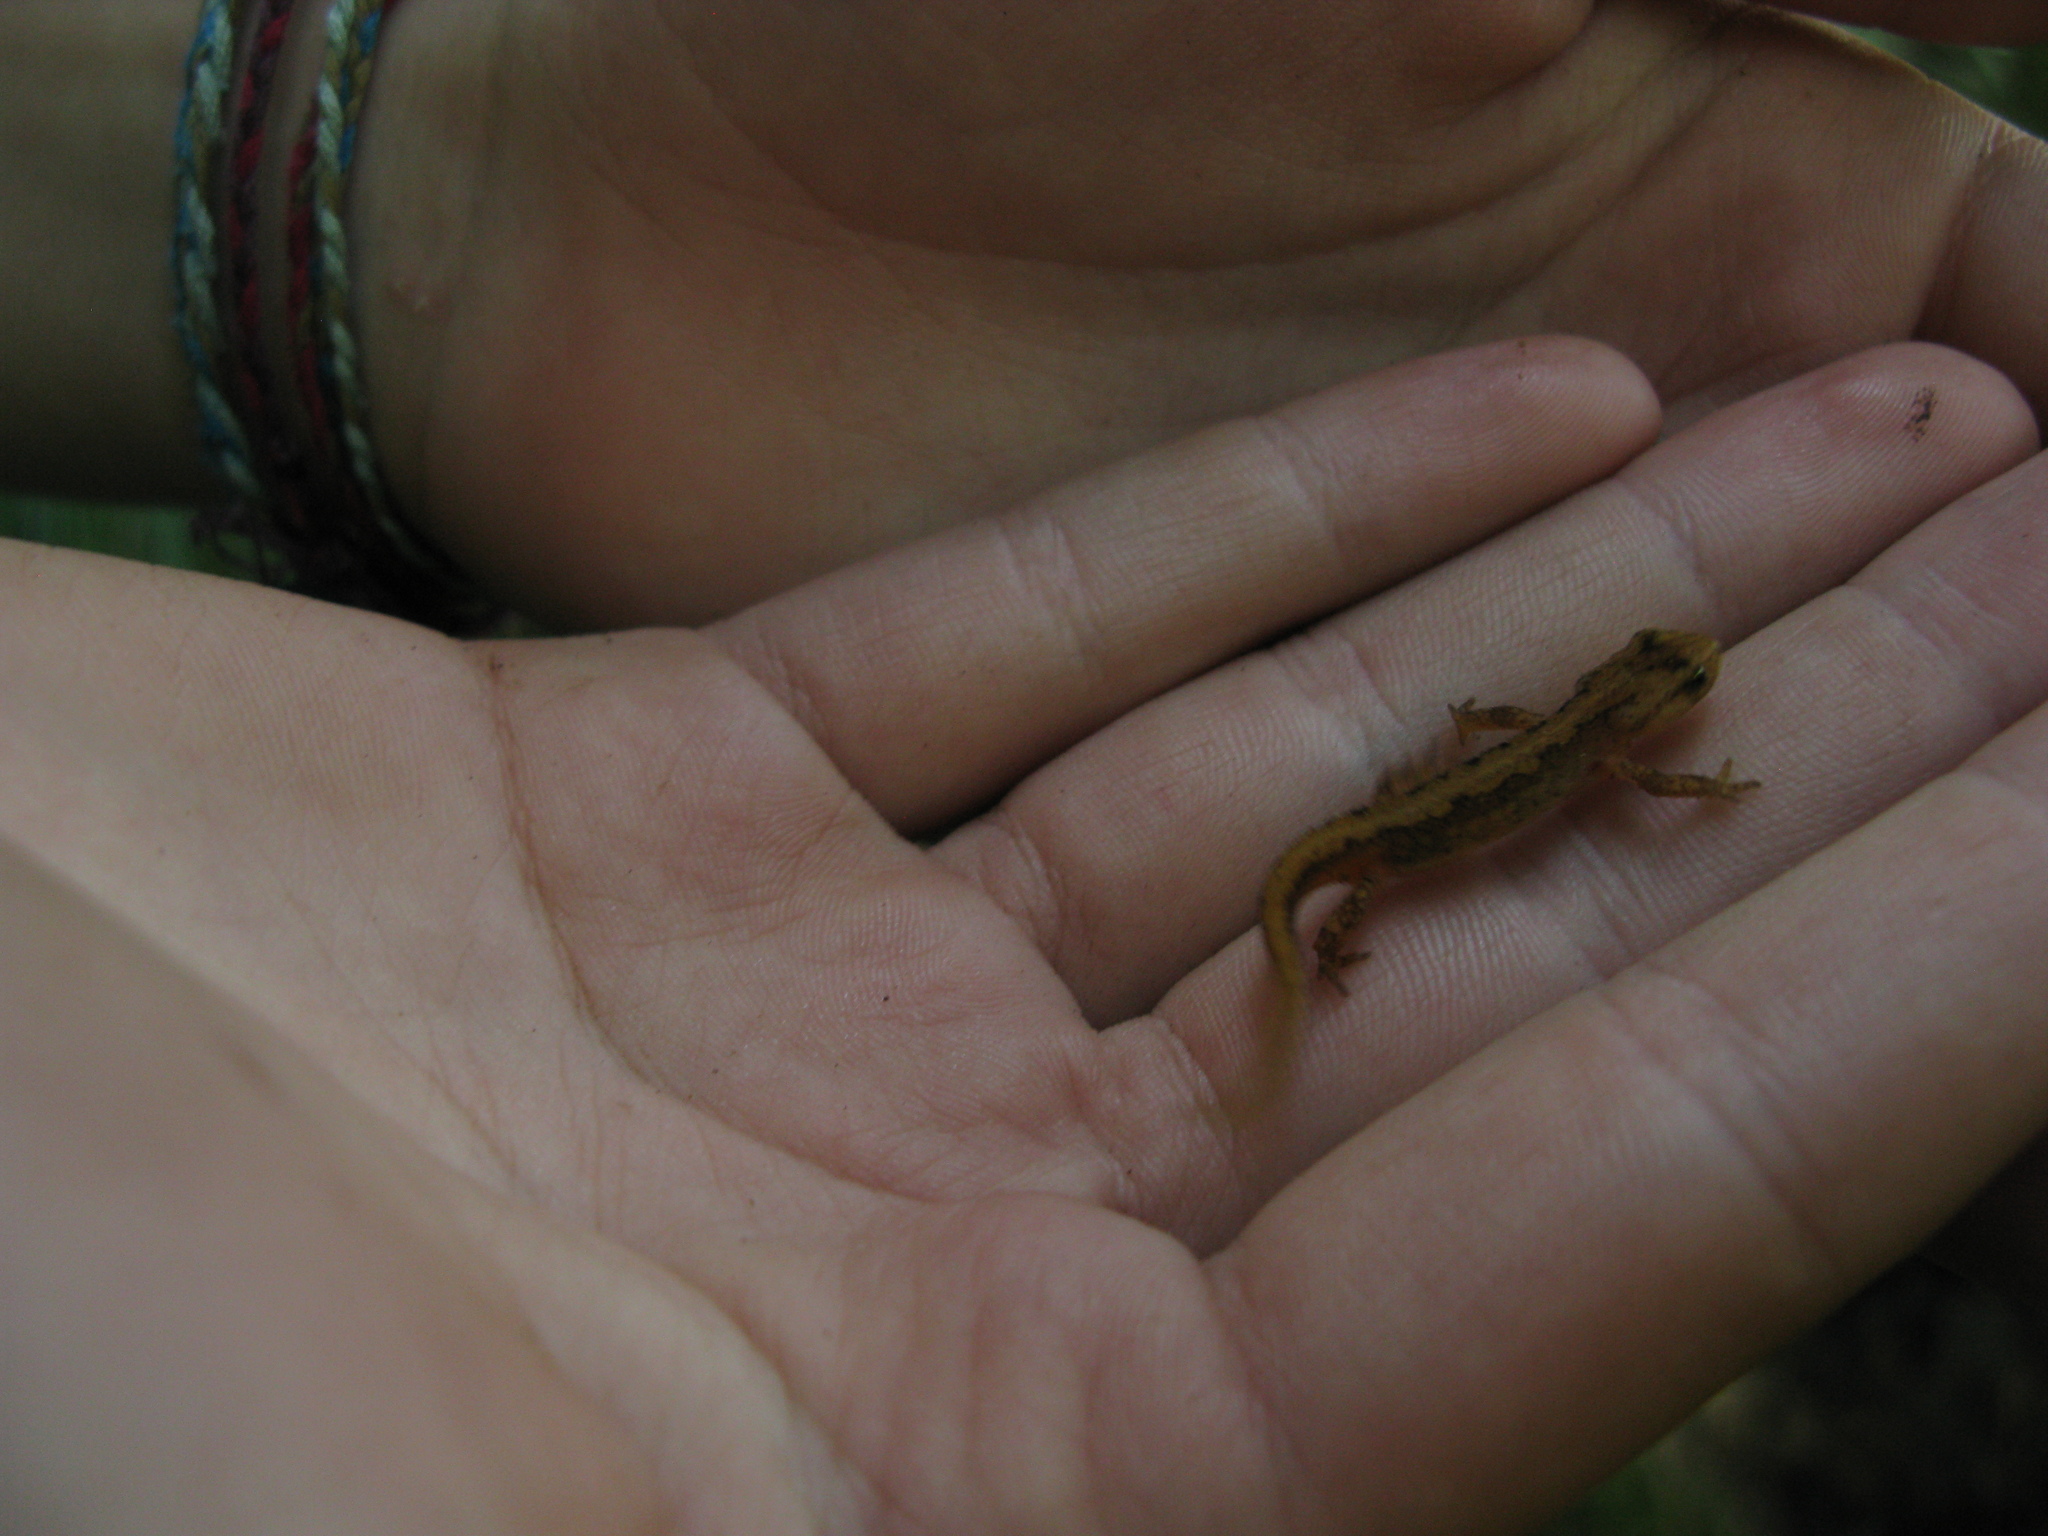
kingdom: Animalia
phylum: Chordata
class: Amphibia
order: Caudata
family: Salamandridae
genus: Lissotriton
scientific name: Lissotriton montandoni
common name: Carpathian newt
